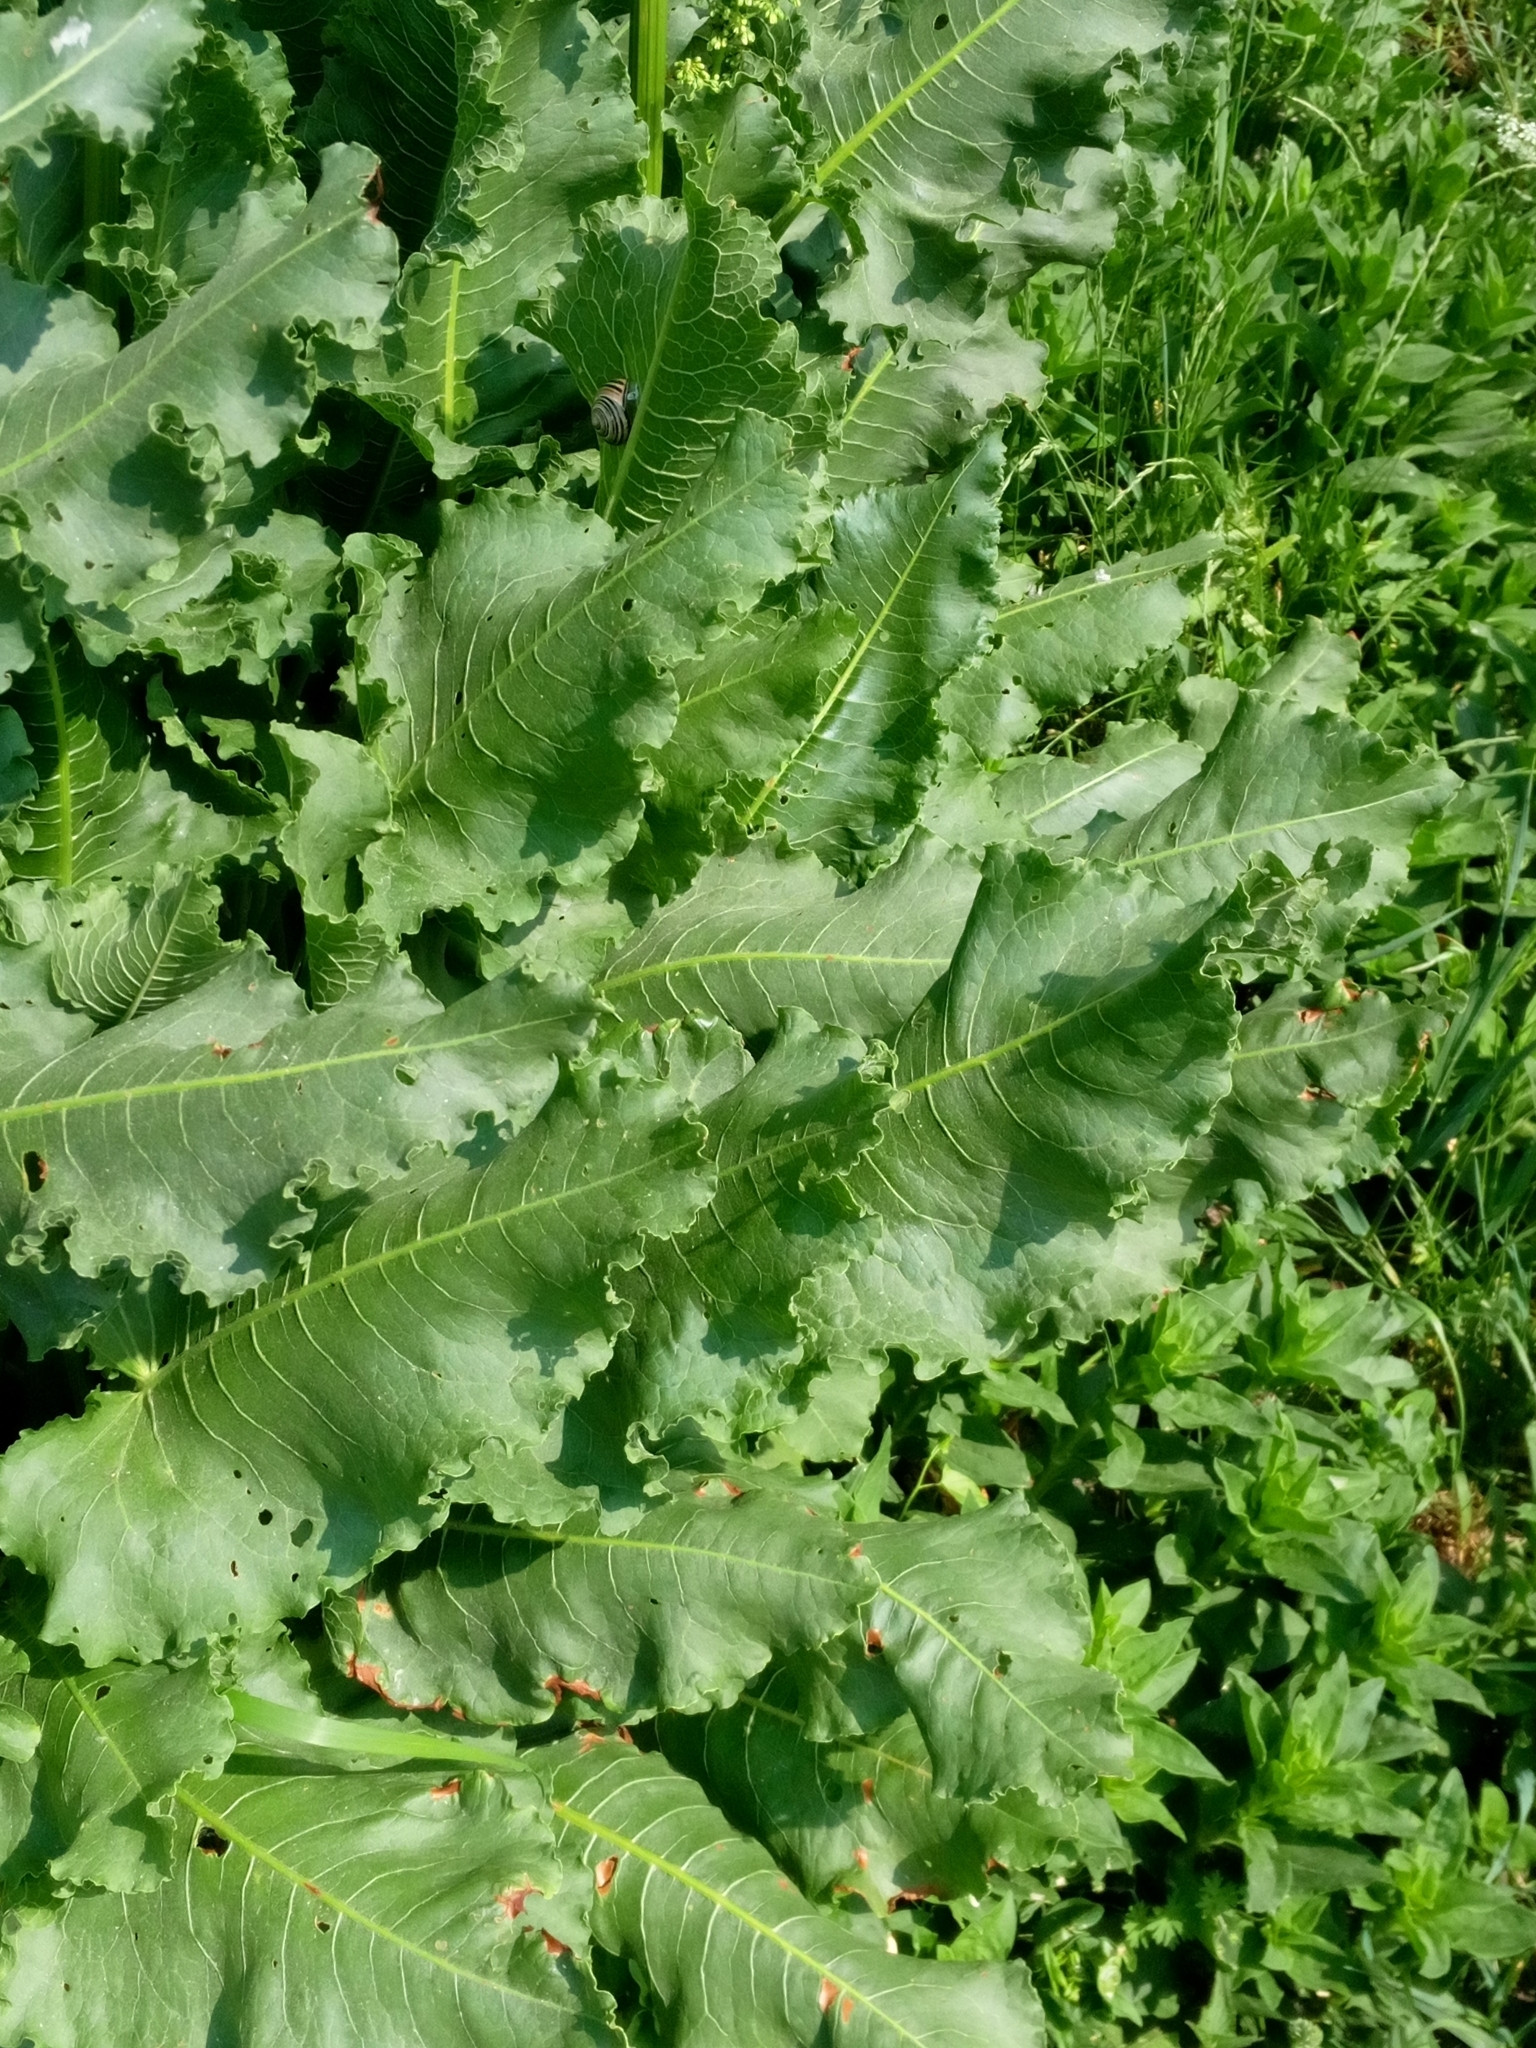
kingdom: Plantae
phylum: Tracheophyta
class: Magnoliopsida
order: Caryophyllales
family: Polygonaceae
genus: Rumex
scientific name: Rumex confertus
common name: Russian dock
